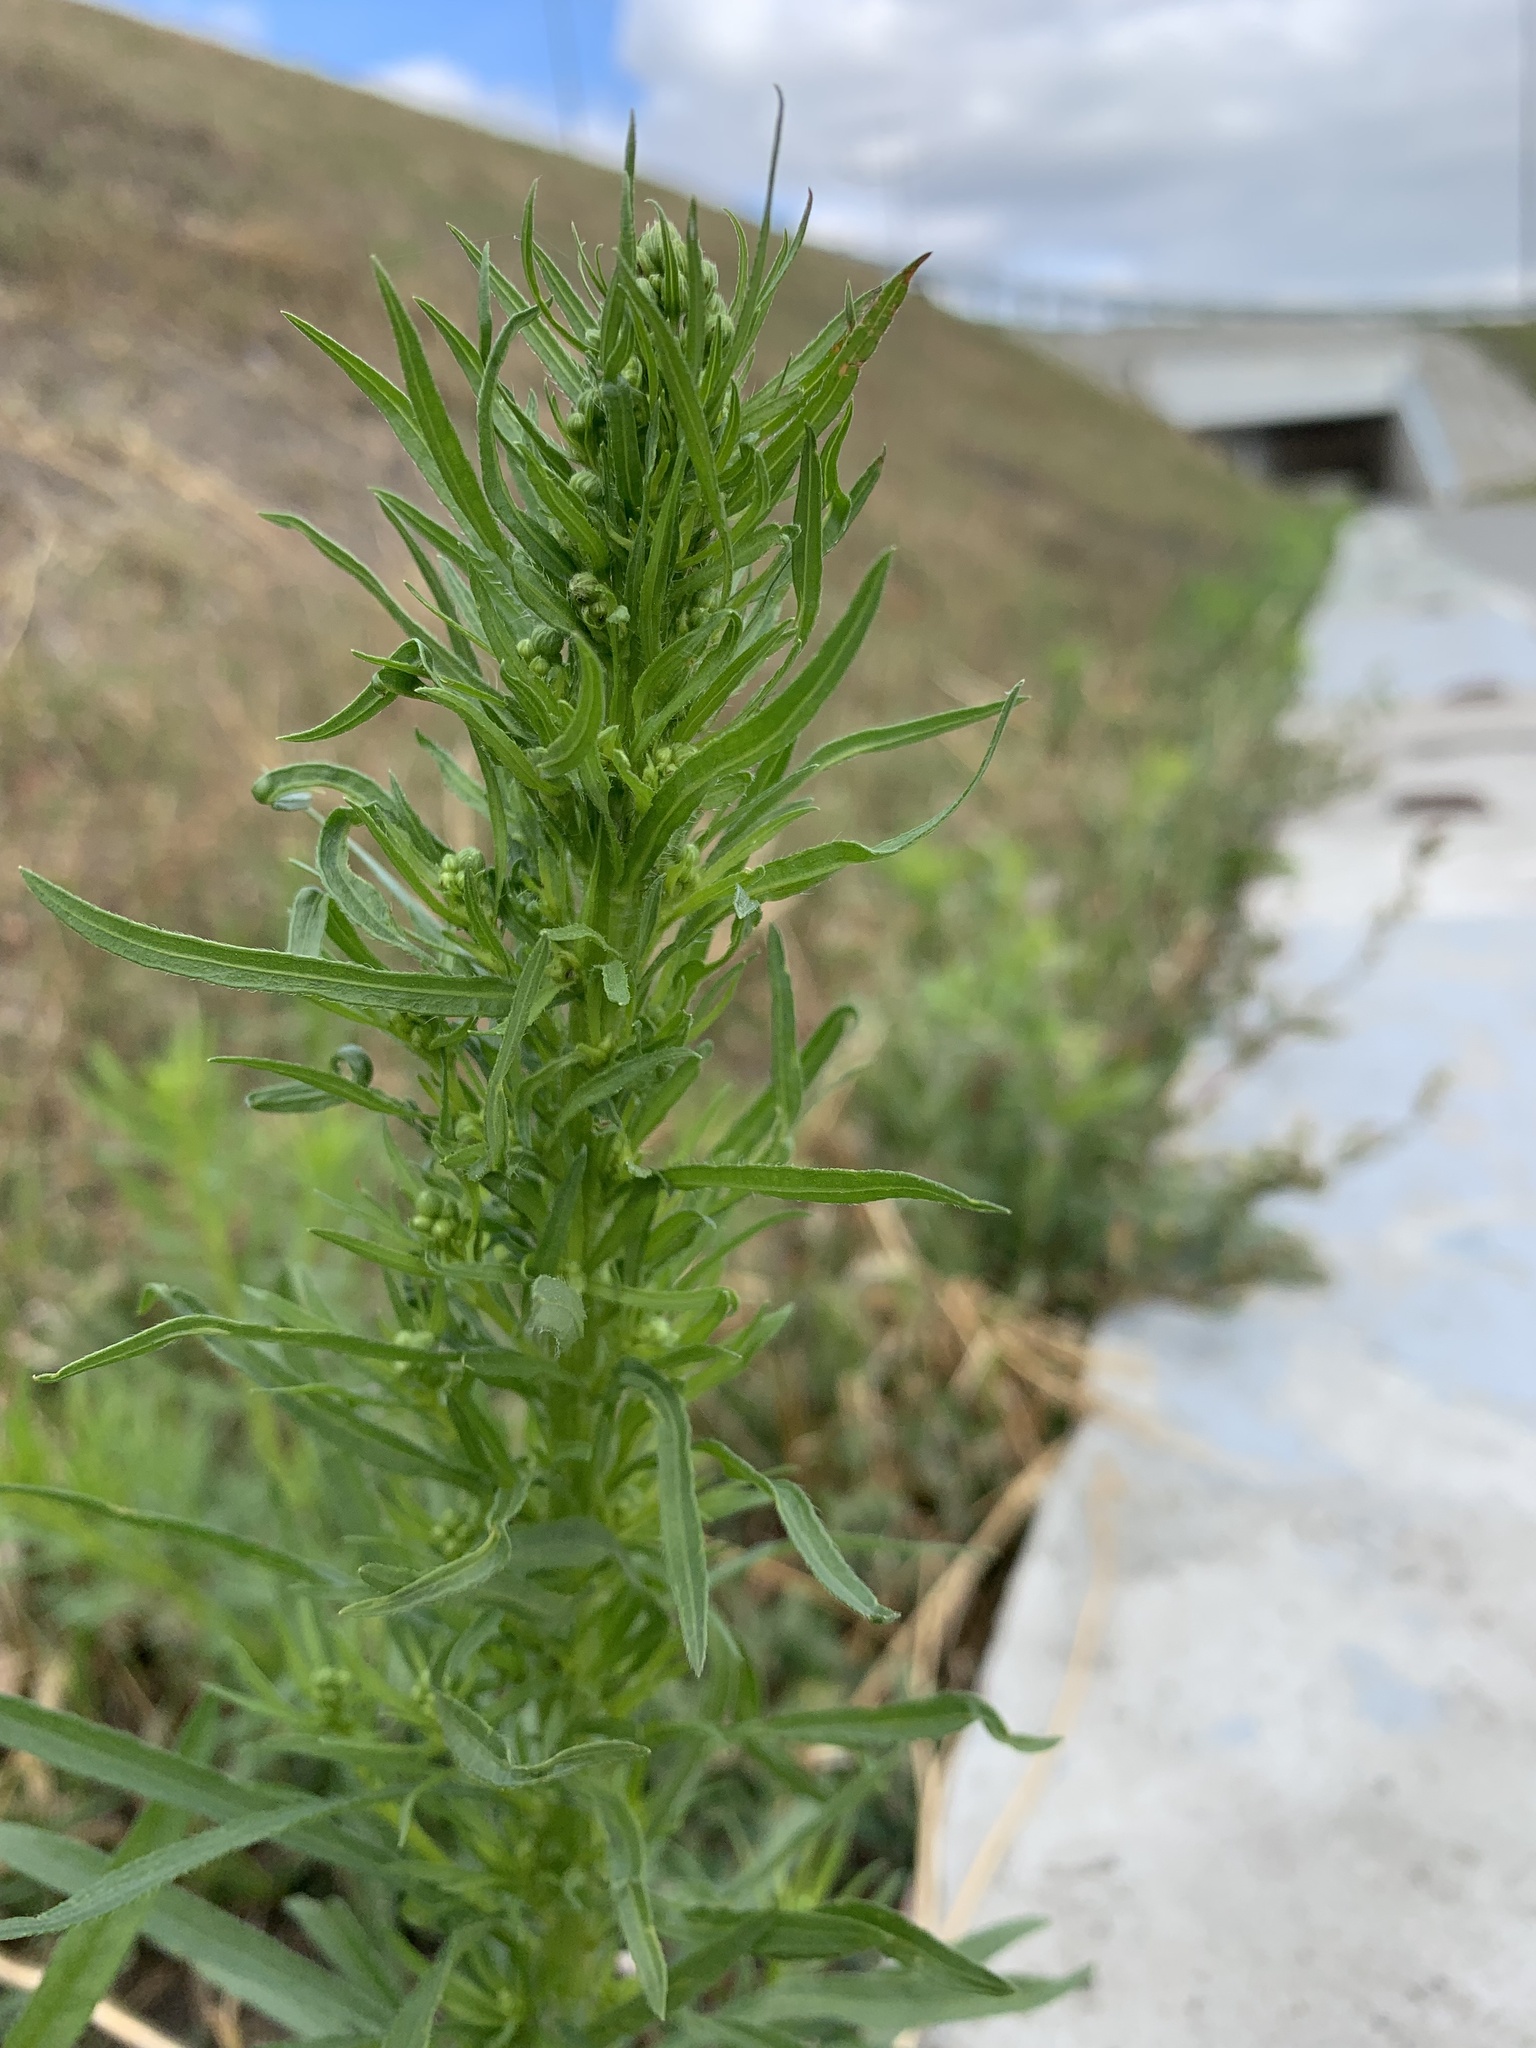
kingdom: Plantae
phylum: Tracheophyta
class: Magnoliopsida
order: Asterales
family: Asteraceae
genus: Erigeron
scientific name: Erigeron canadensis
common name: Canadian fleabane
